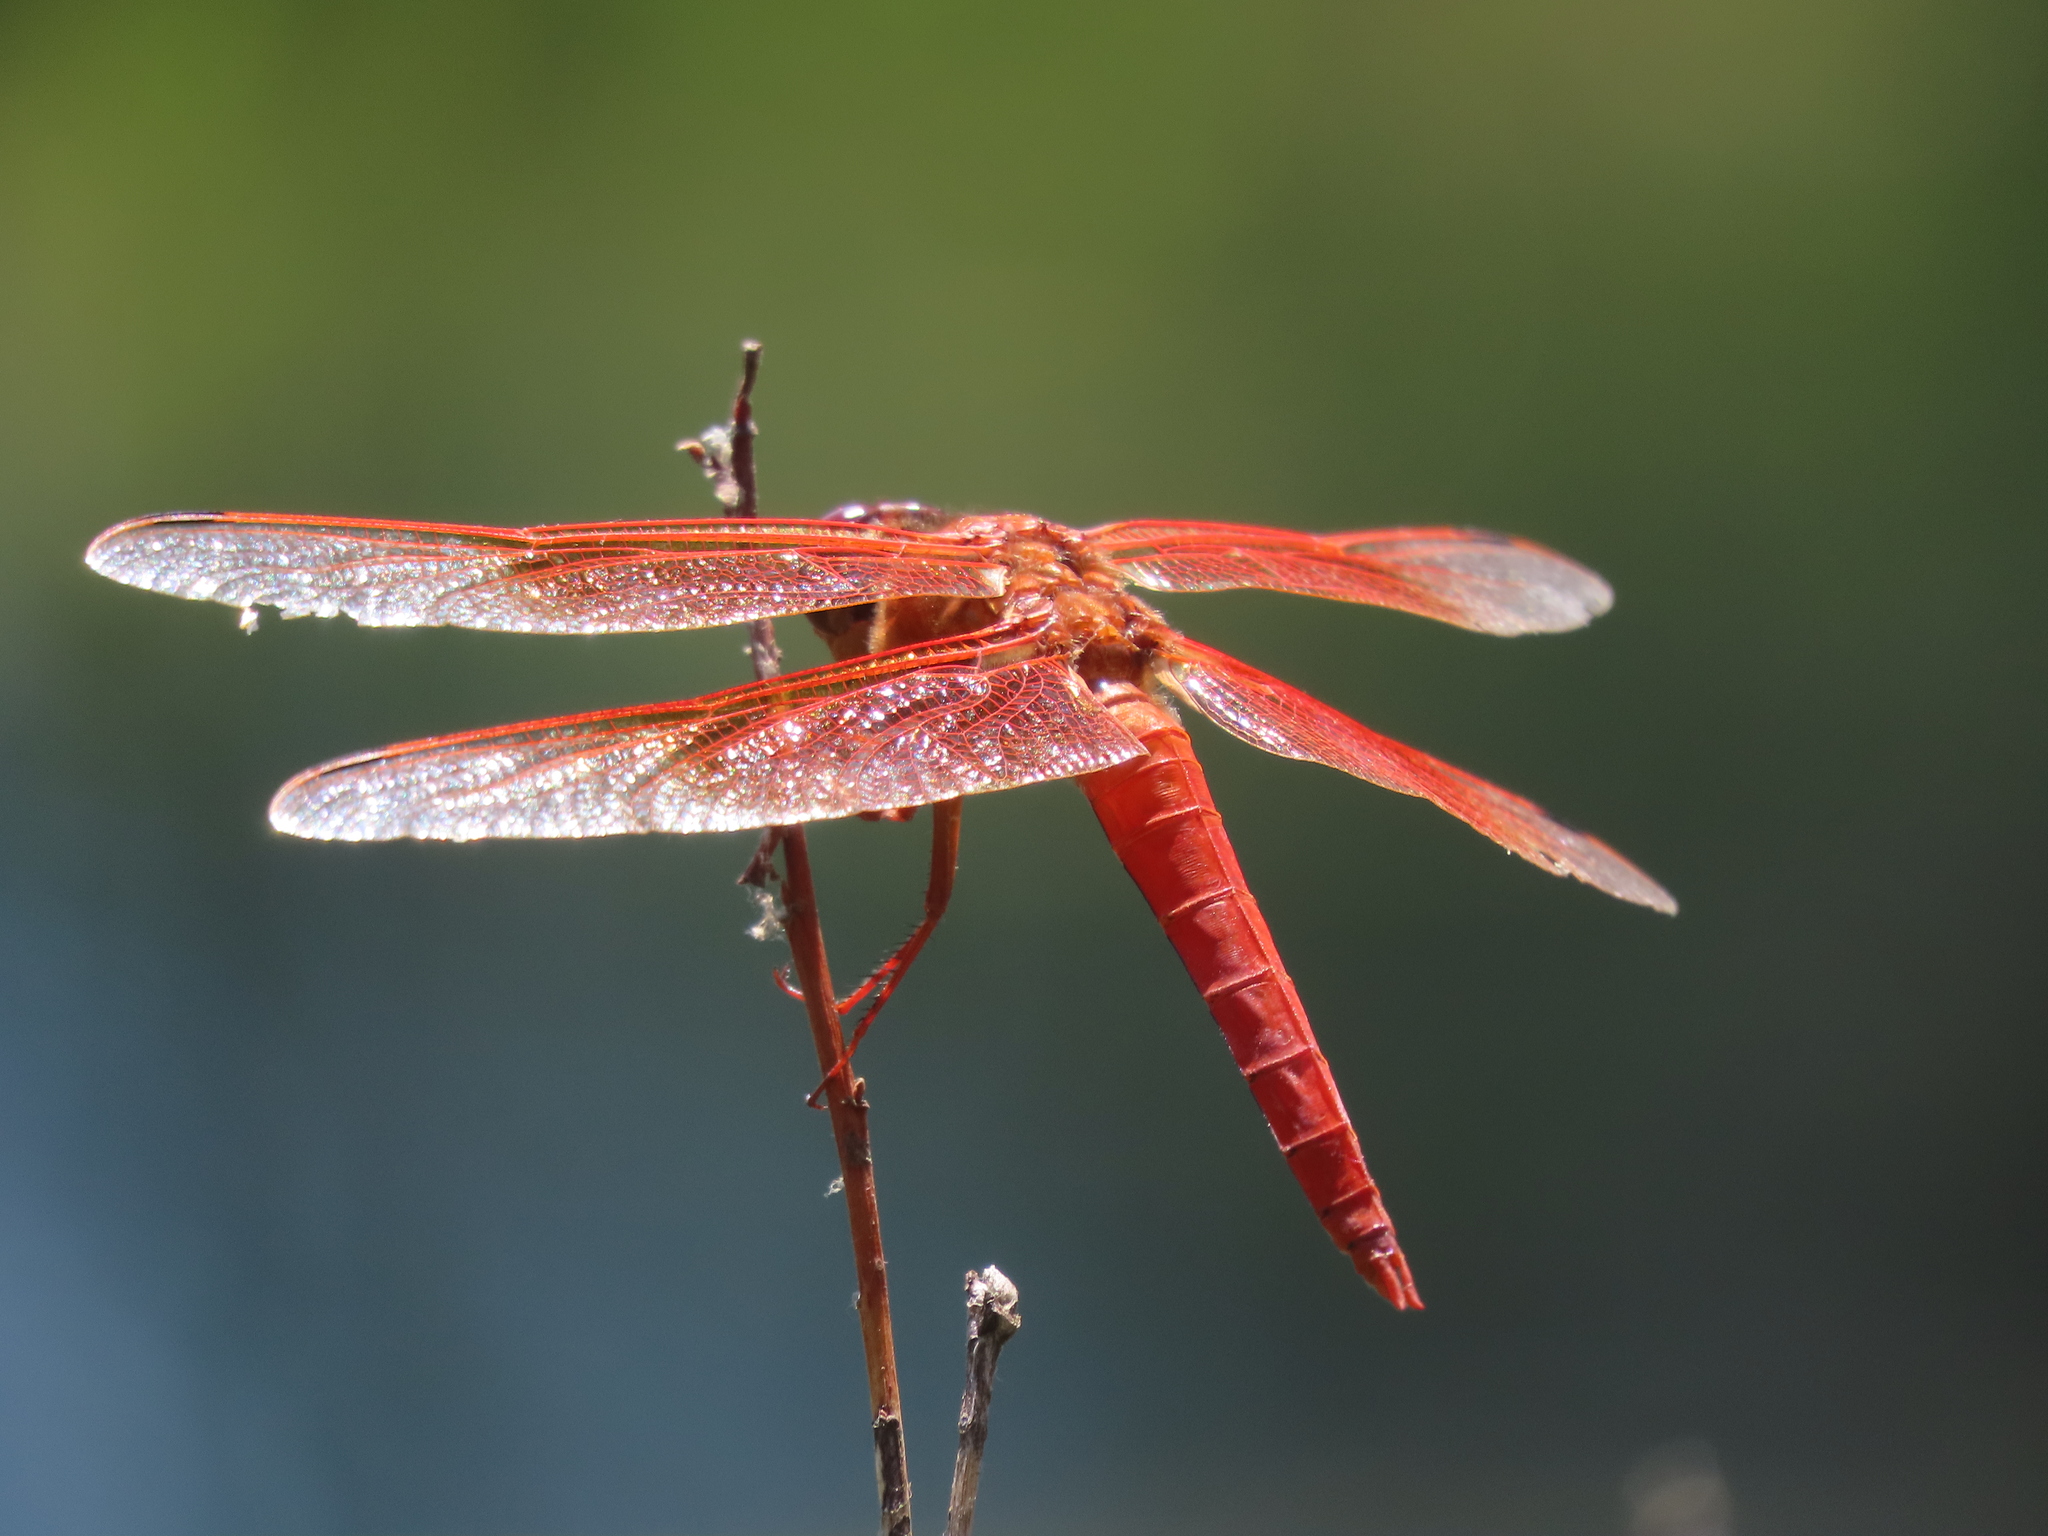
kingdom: Animalia
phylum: Arthropoda
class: Insecta
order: Odonata
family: Libellulidae
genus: Libellula
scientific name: Libellula saturata
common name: Flame skimmer
